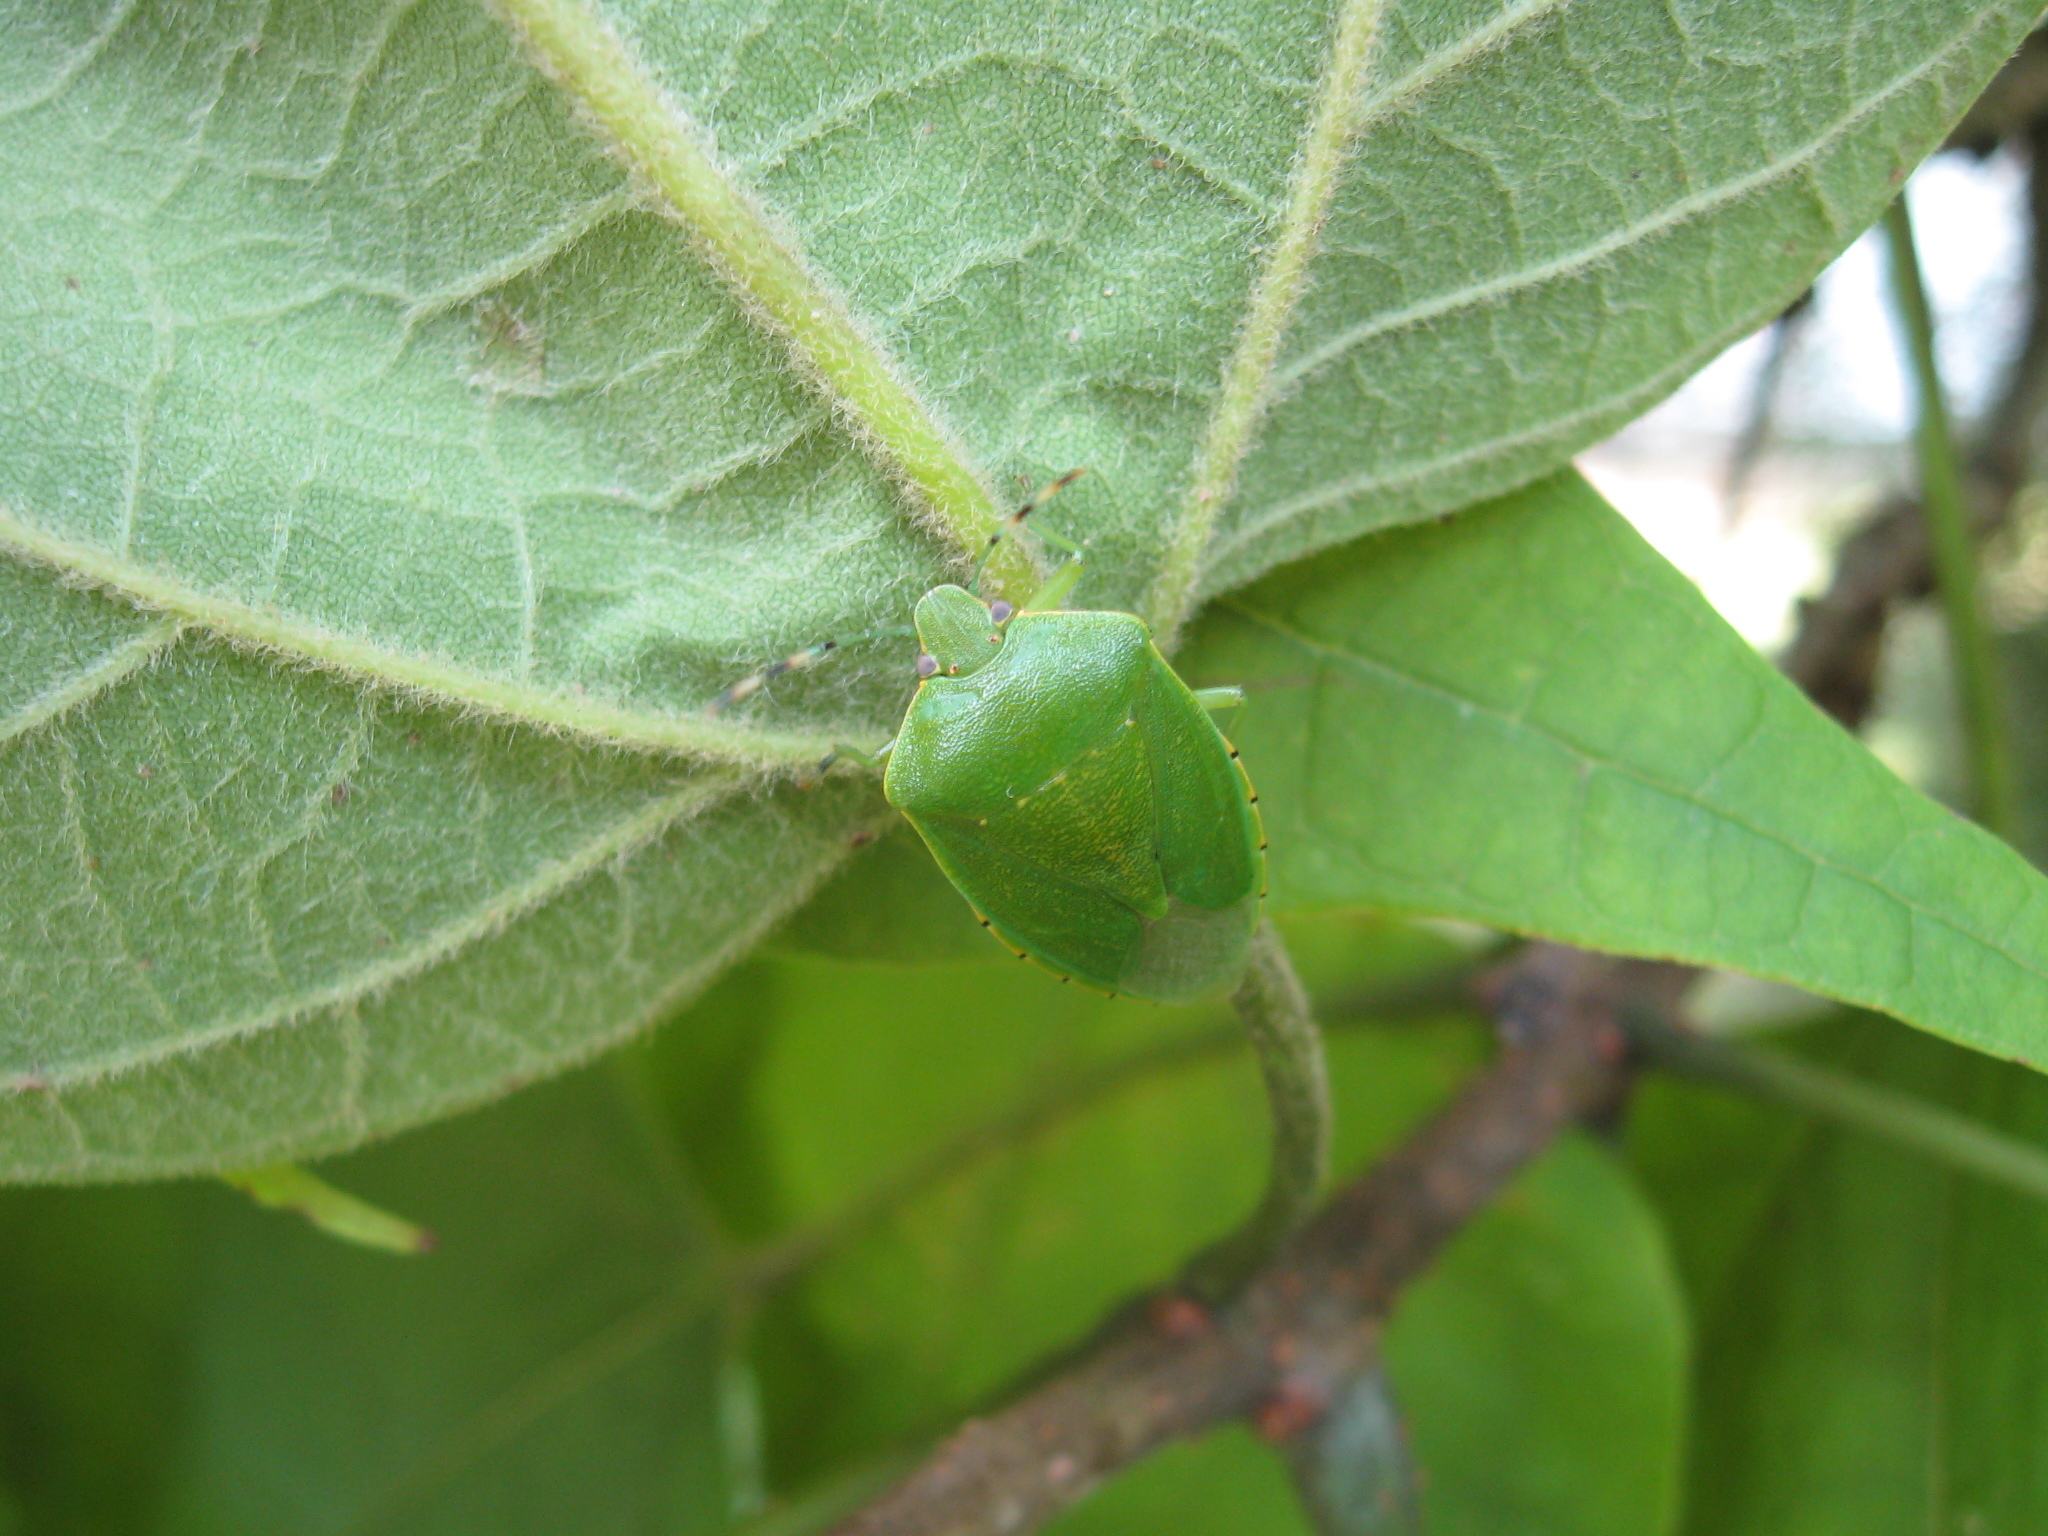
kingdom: Animalia
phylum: Arthropoda
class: Insecta
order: Hemiptera
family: Pentatomidae
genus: Chinavia
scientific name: Chinavia hilaris
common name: Green stink bug
